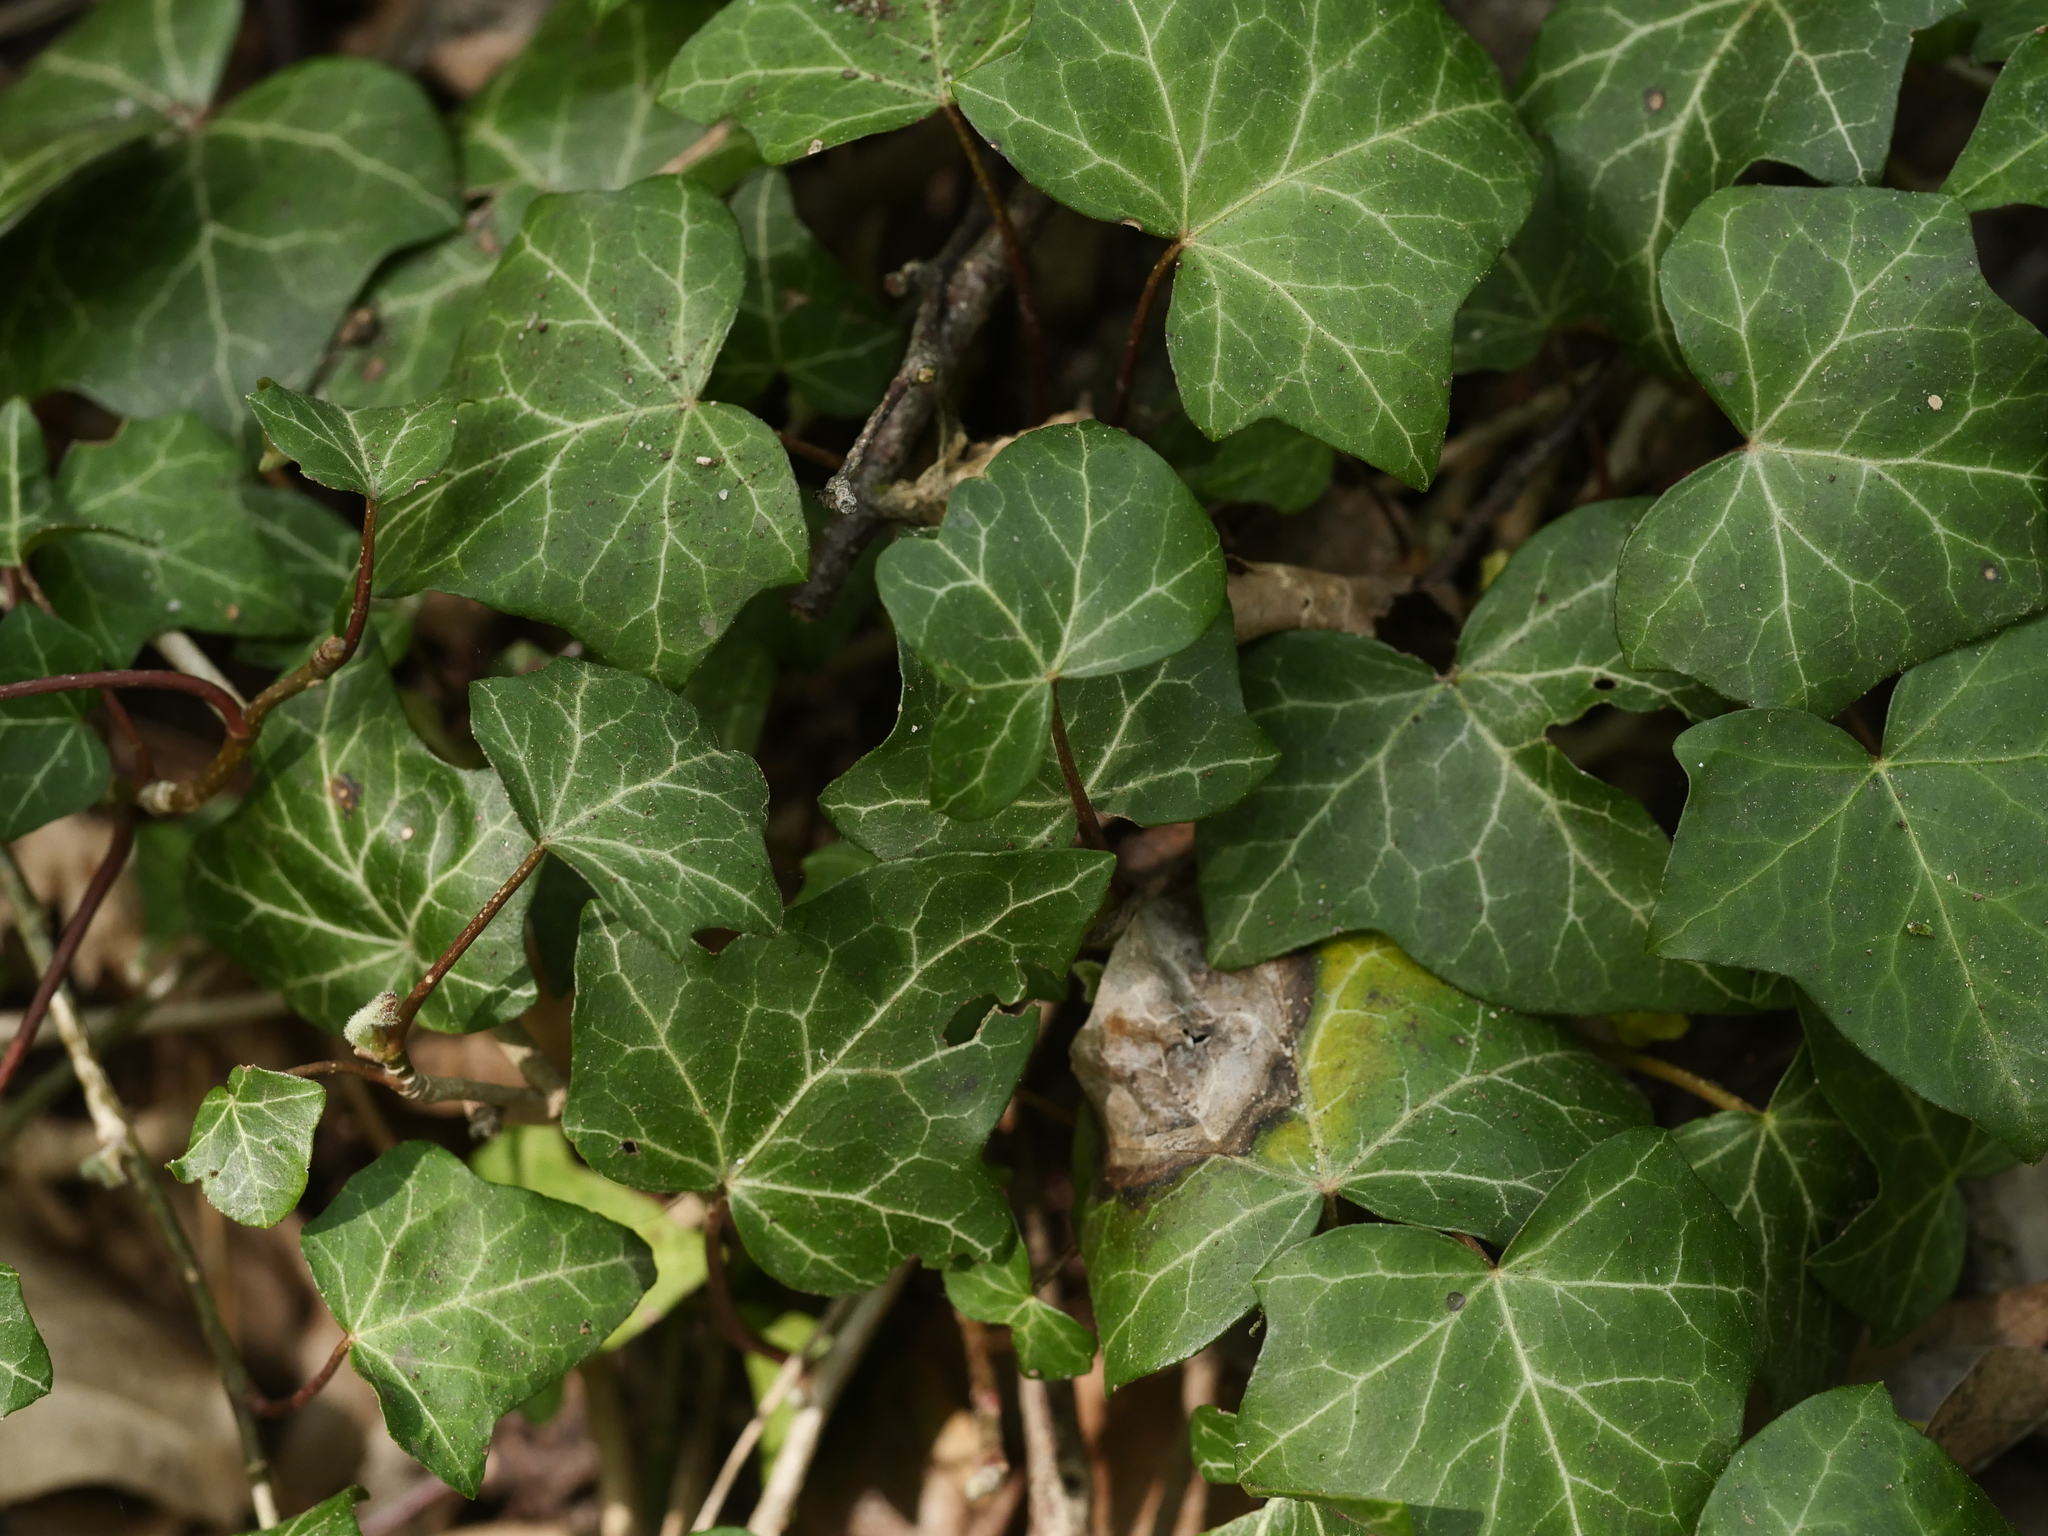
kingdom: Plantae
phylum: Tracheophyta
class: Magnoliopsida
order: Apiales
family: Araliaceae
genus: Hedera
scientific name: Hedera helix
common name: Ivy
